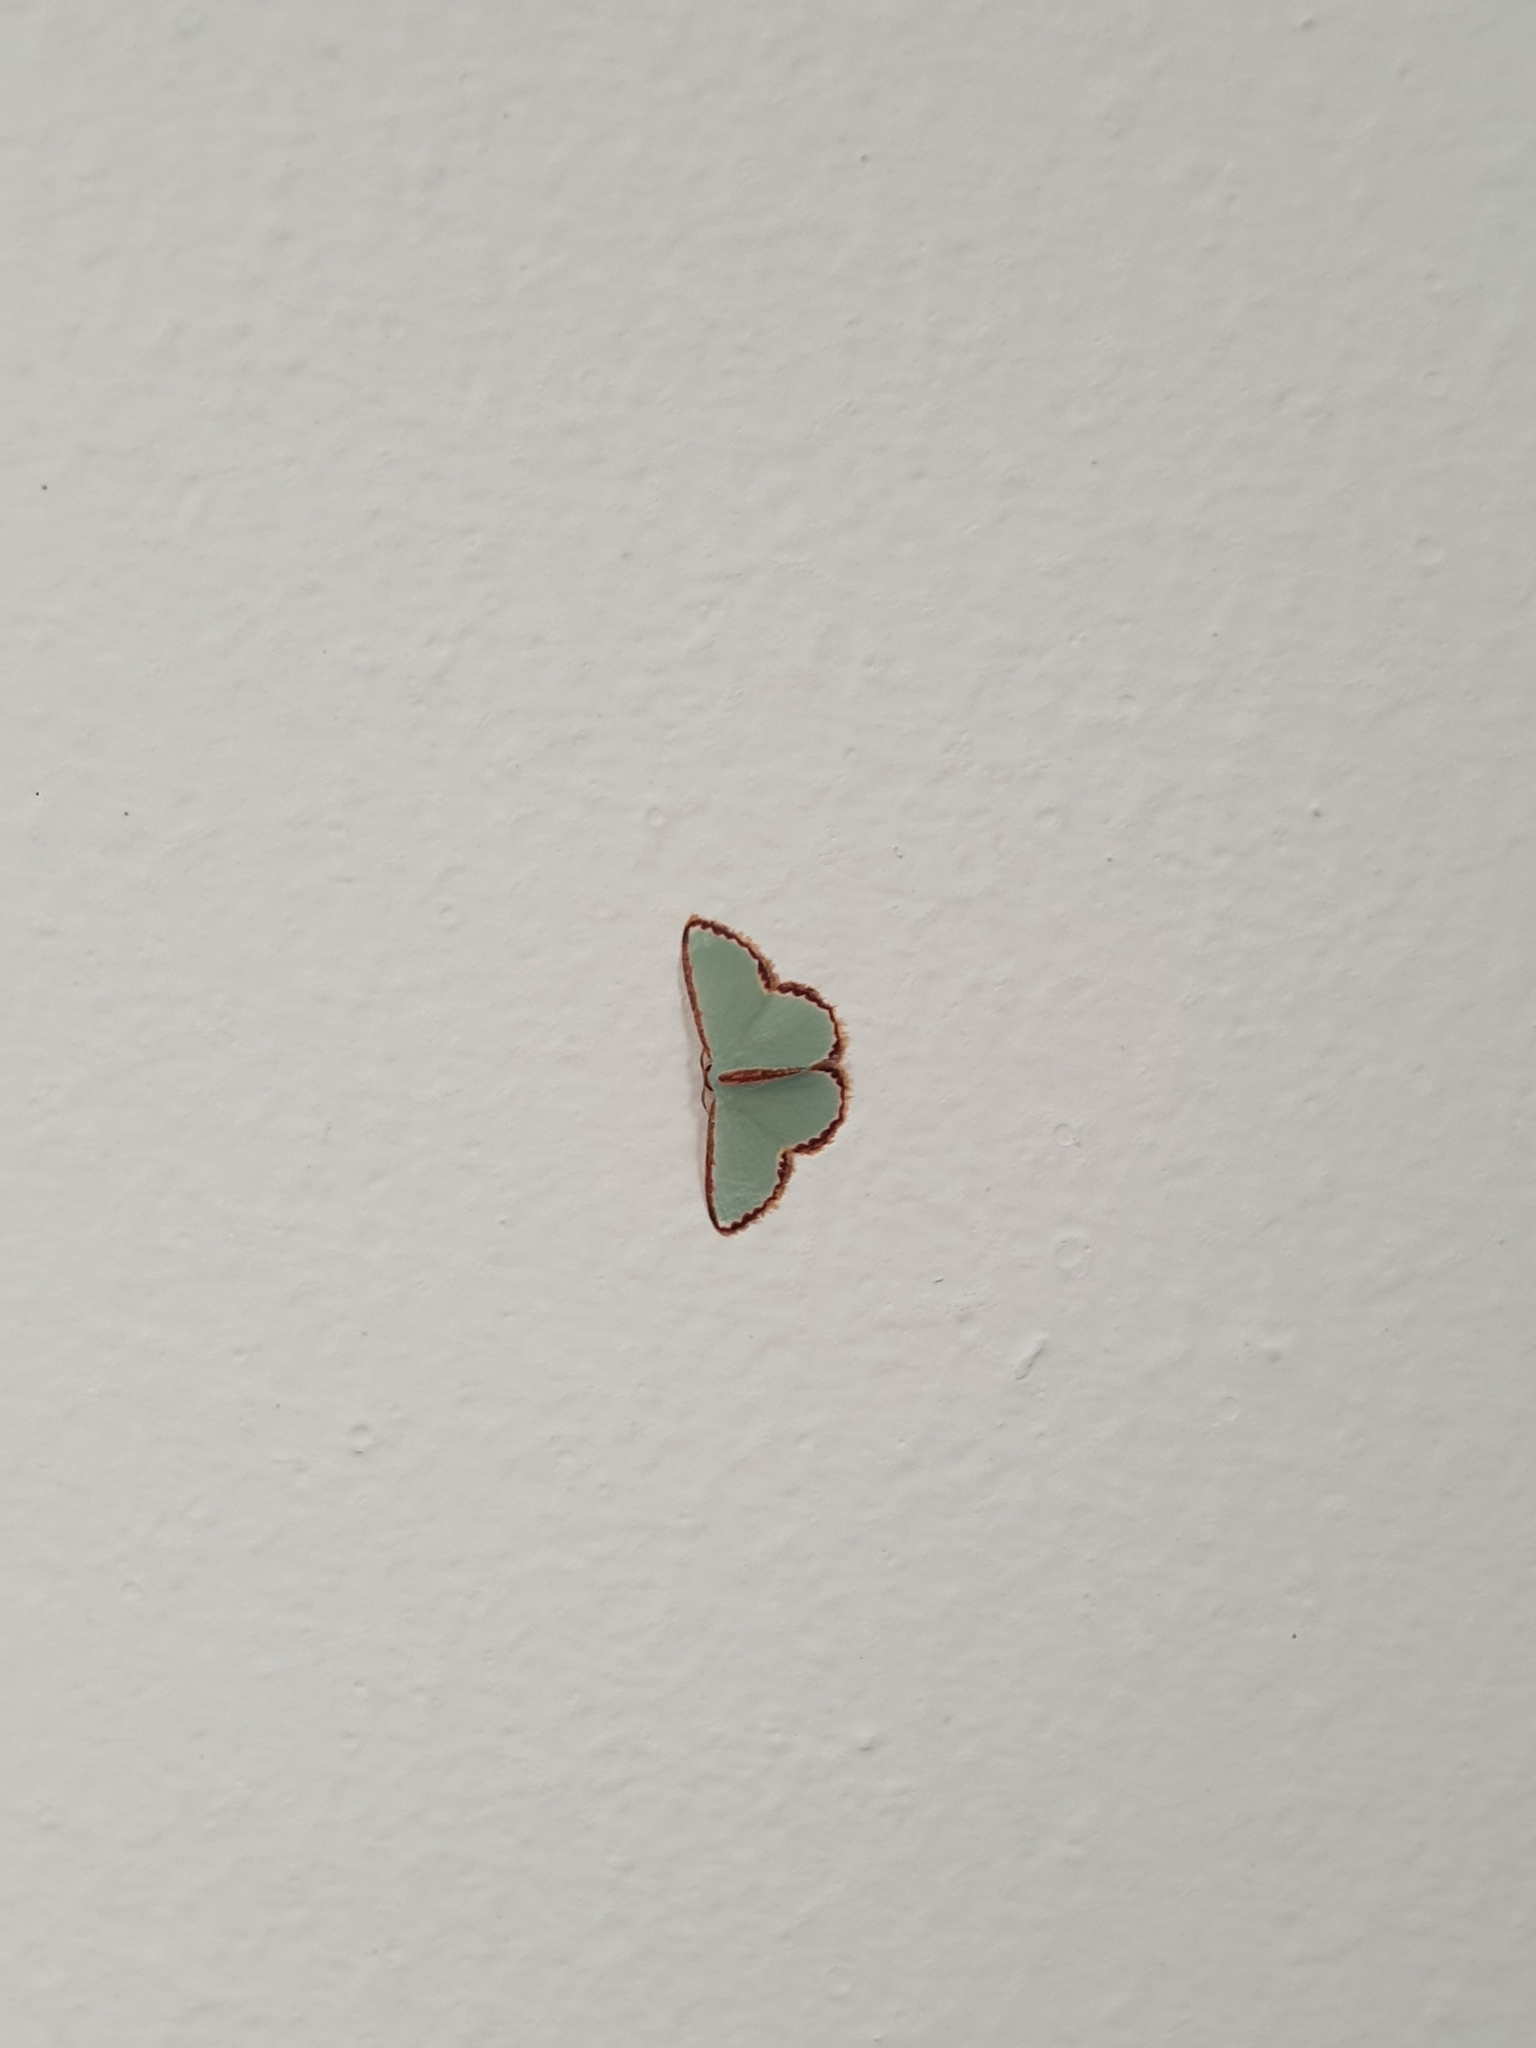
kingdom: Animalia
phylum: Arthropoda
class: Insecta
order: Lepidoptera
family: Geometridae
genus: Comostola
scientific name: Comostola pyrrhogona
